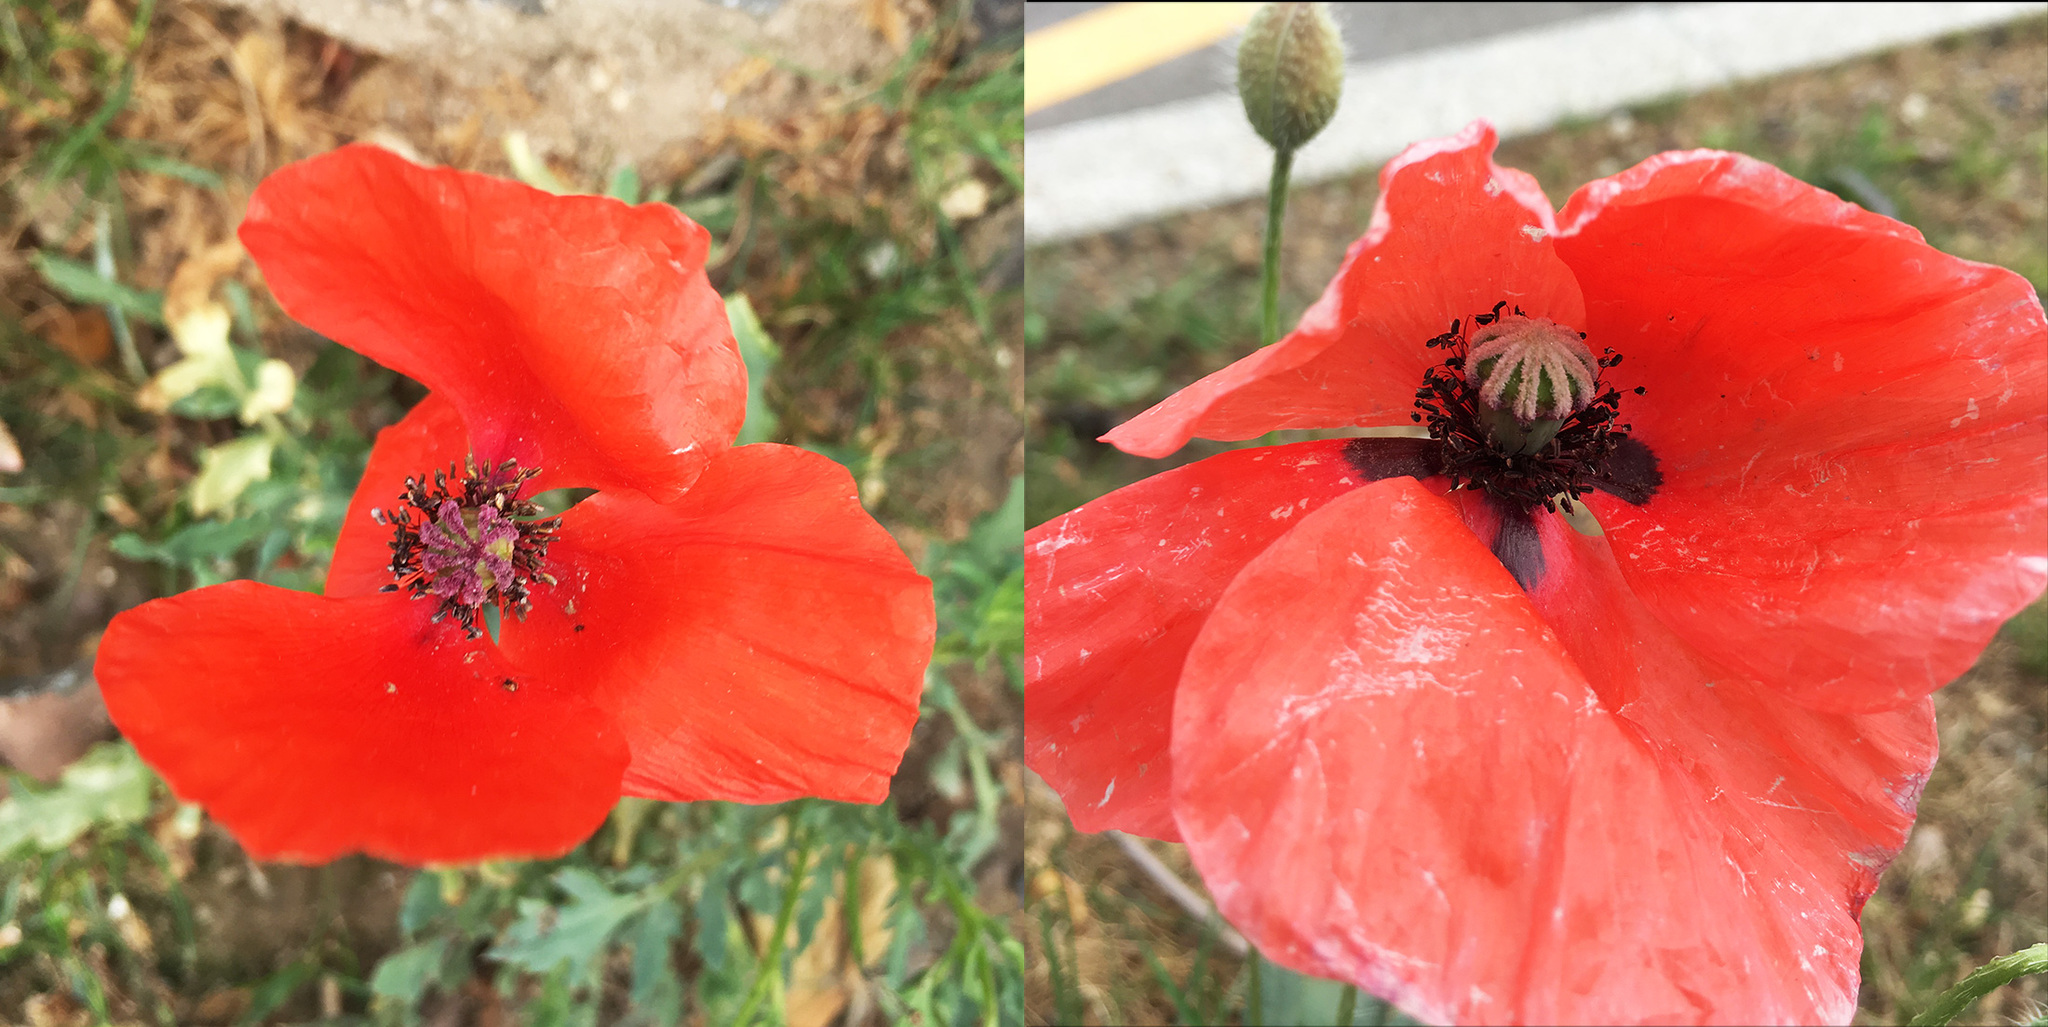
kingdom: Plantae
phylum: Tracheophyta
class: Magnoliopsida
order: Ranunculales
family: Papaveraceae
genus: Papaver
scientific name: Papaver rhoeas
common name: Corn poppy
